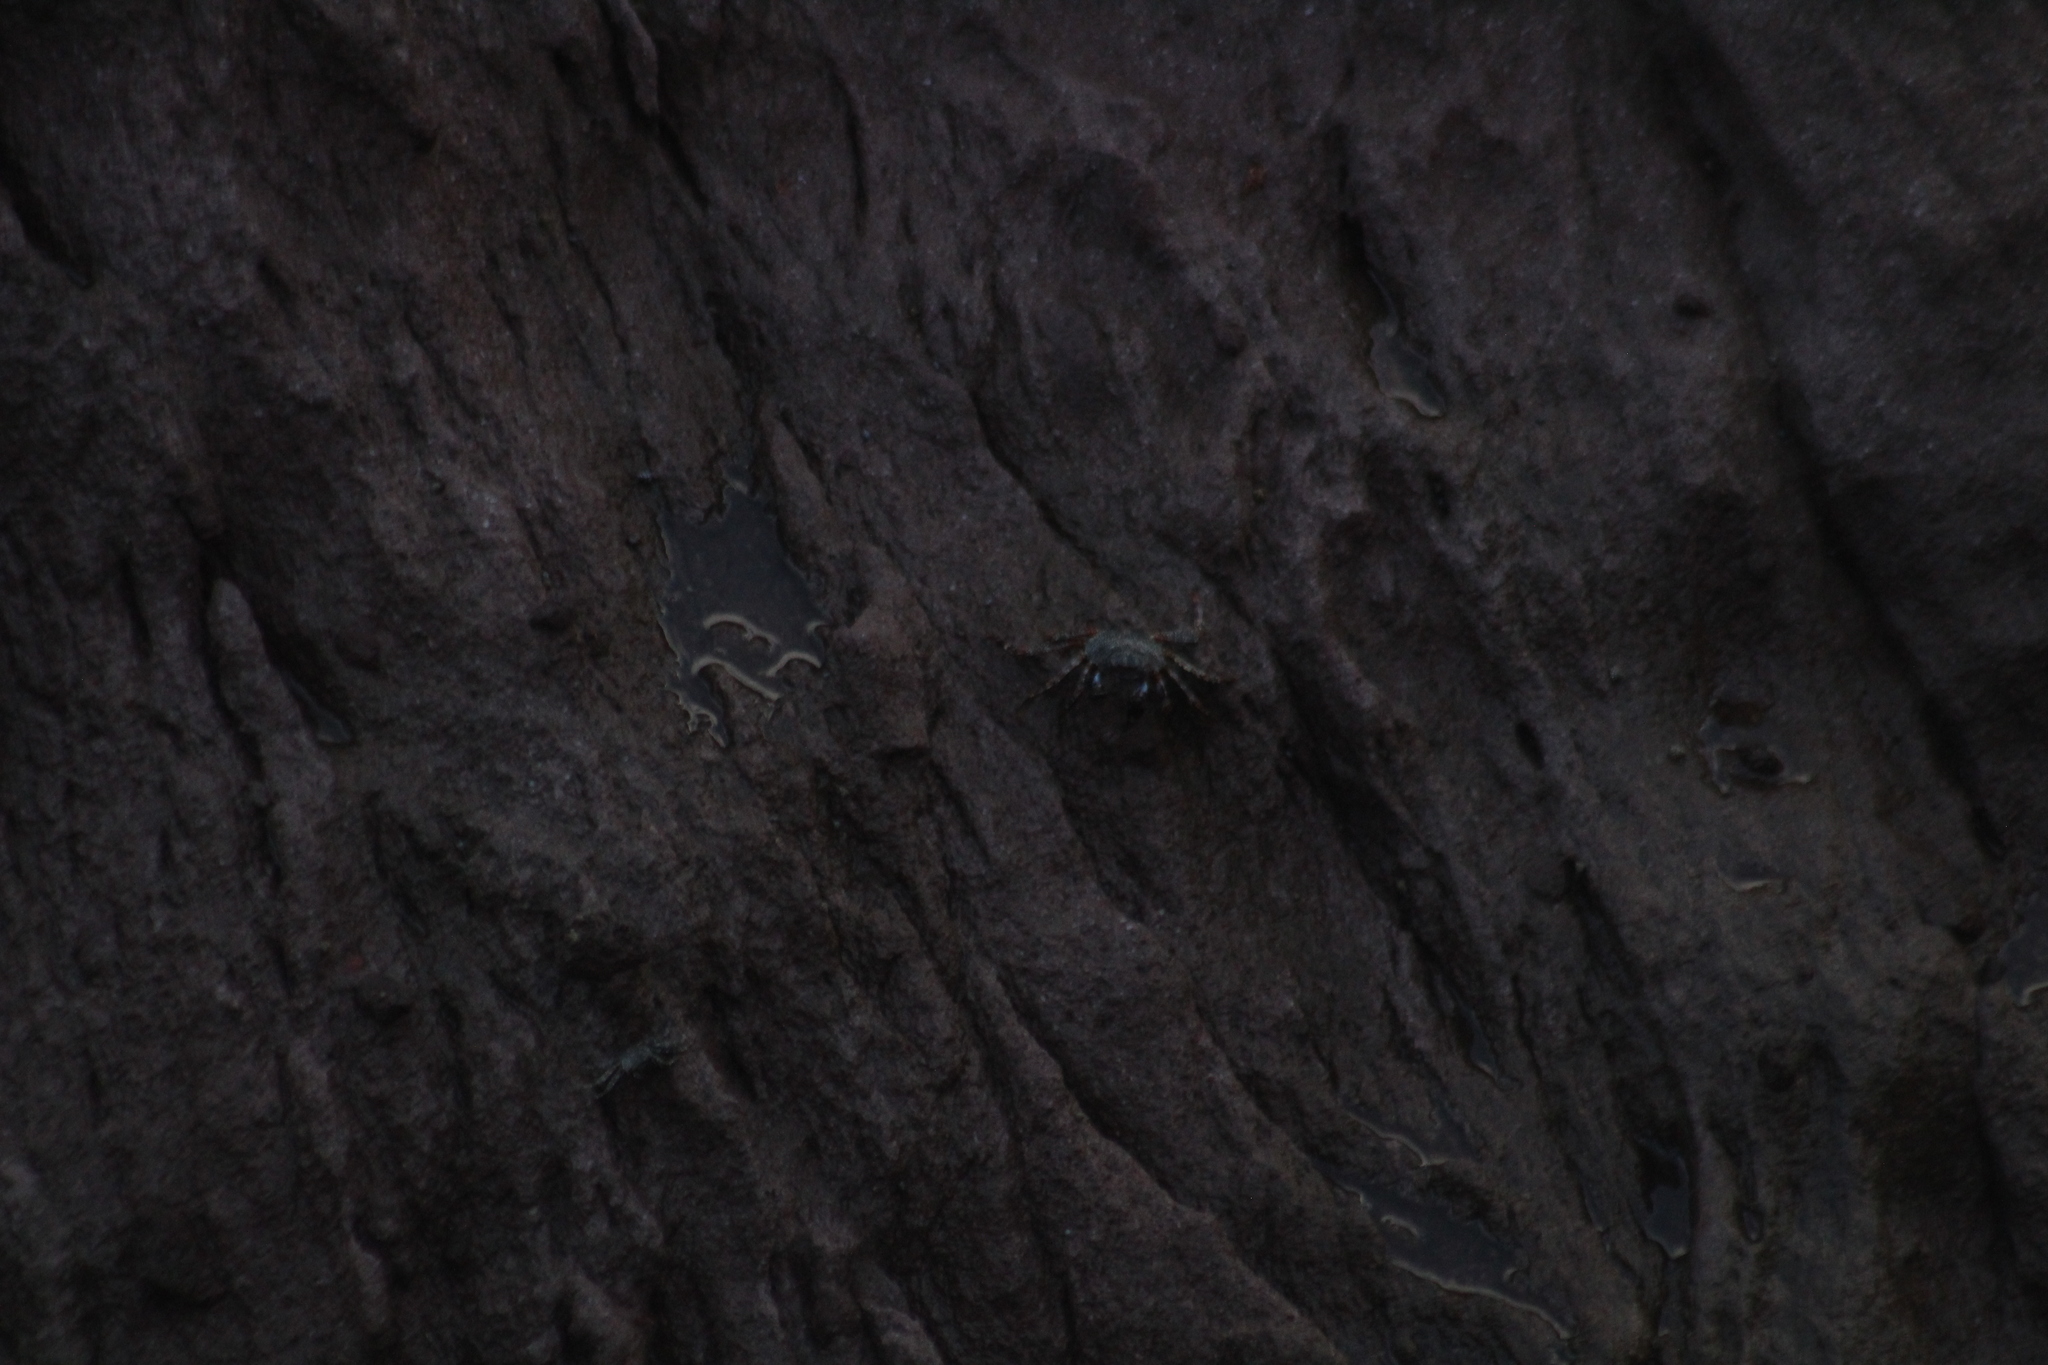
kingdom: Animalia
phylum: Arthropoda
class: Malacostraca
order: Decapoda
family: Grapsidae
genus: Grapsus
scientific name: Grapsus grapsus
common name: Sally lightfoot
